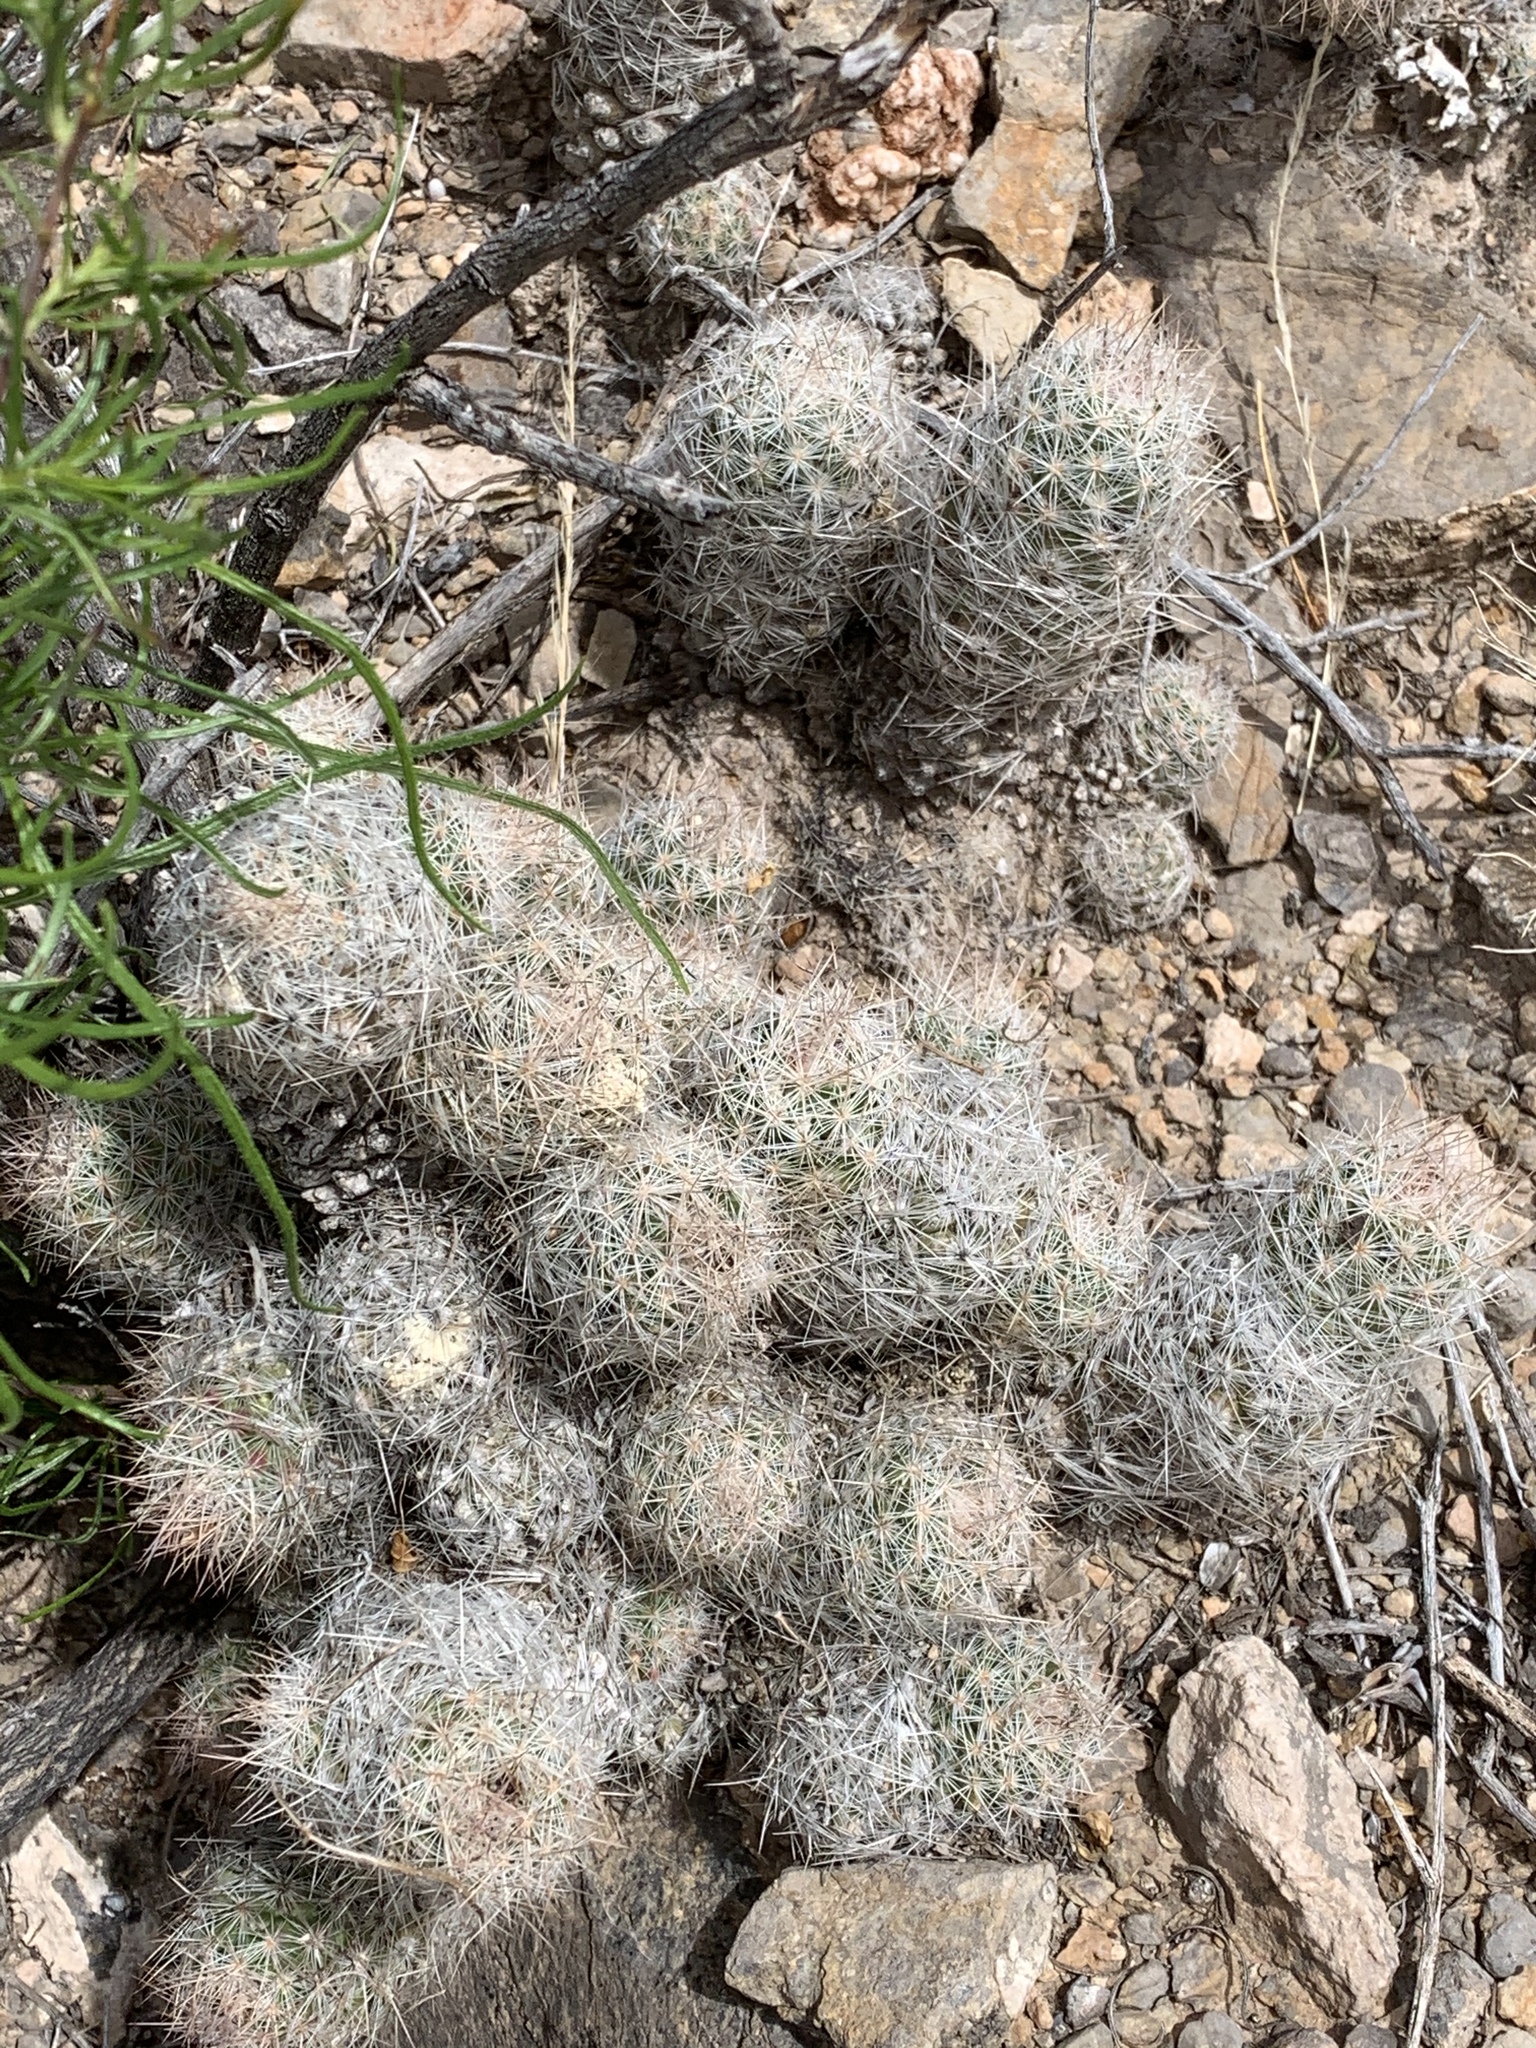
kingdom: Plantae
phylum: Tracheophyta
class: Magnoliopsida
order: Caryophyllales
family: Cactaceae
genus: Pelecyphora
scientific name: Pelecyphora sneedii
